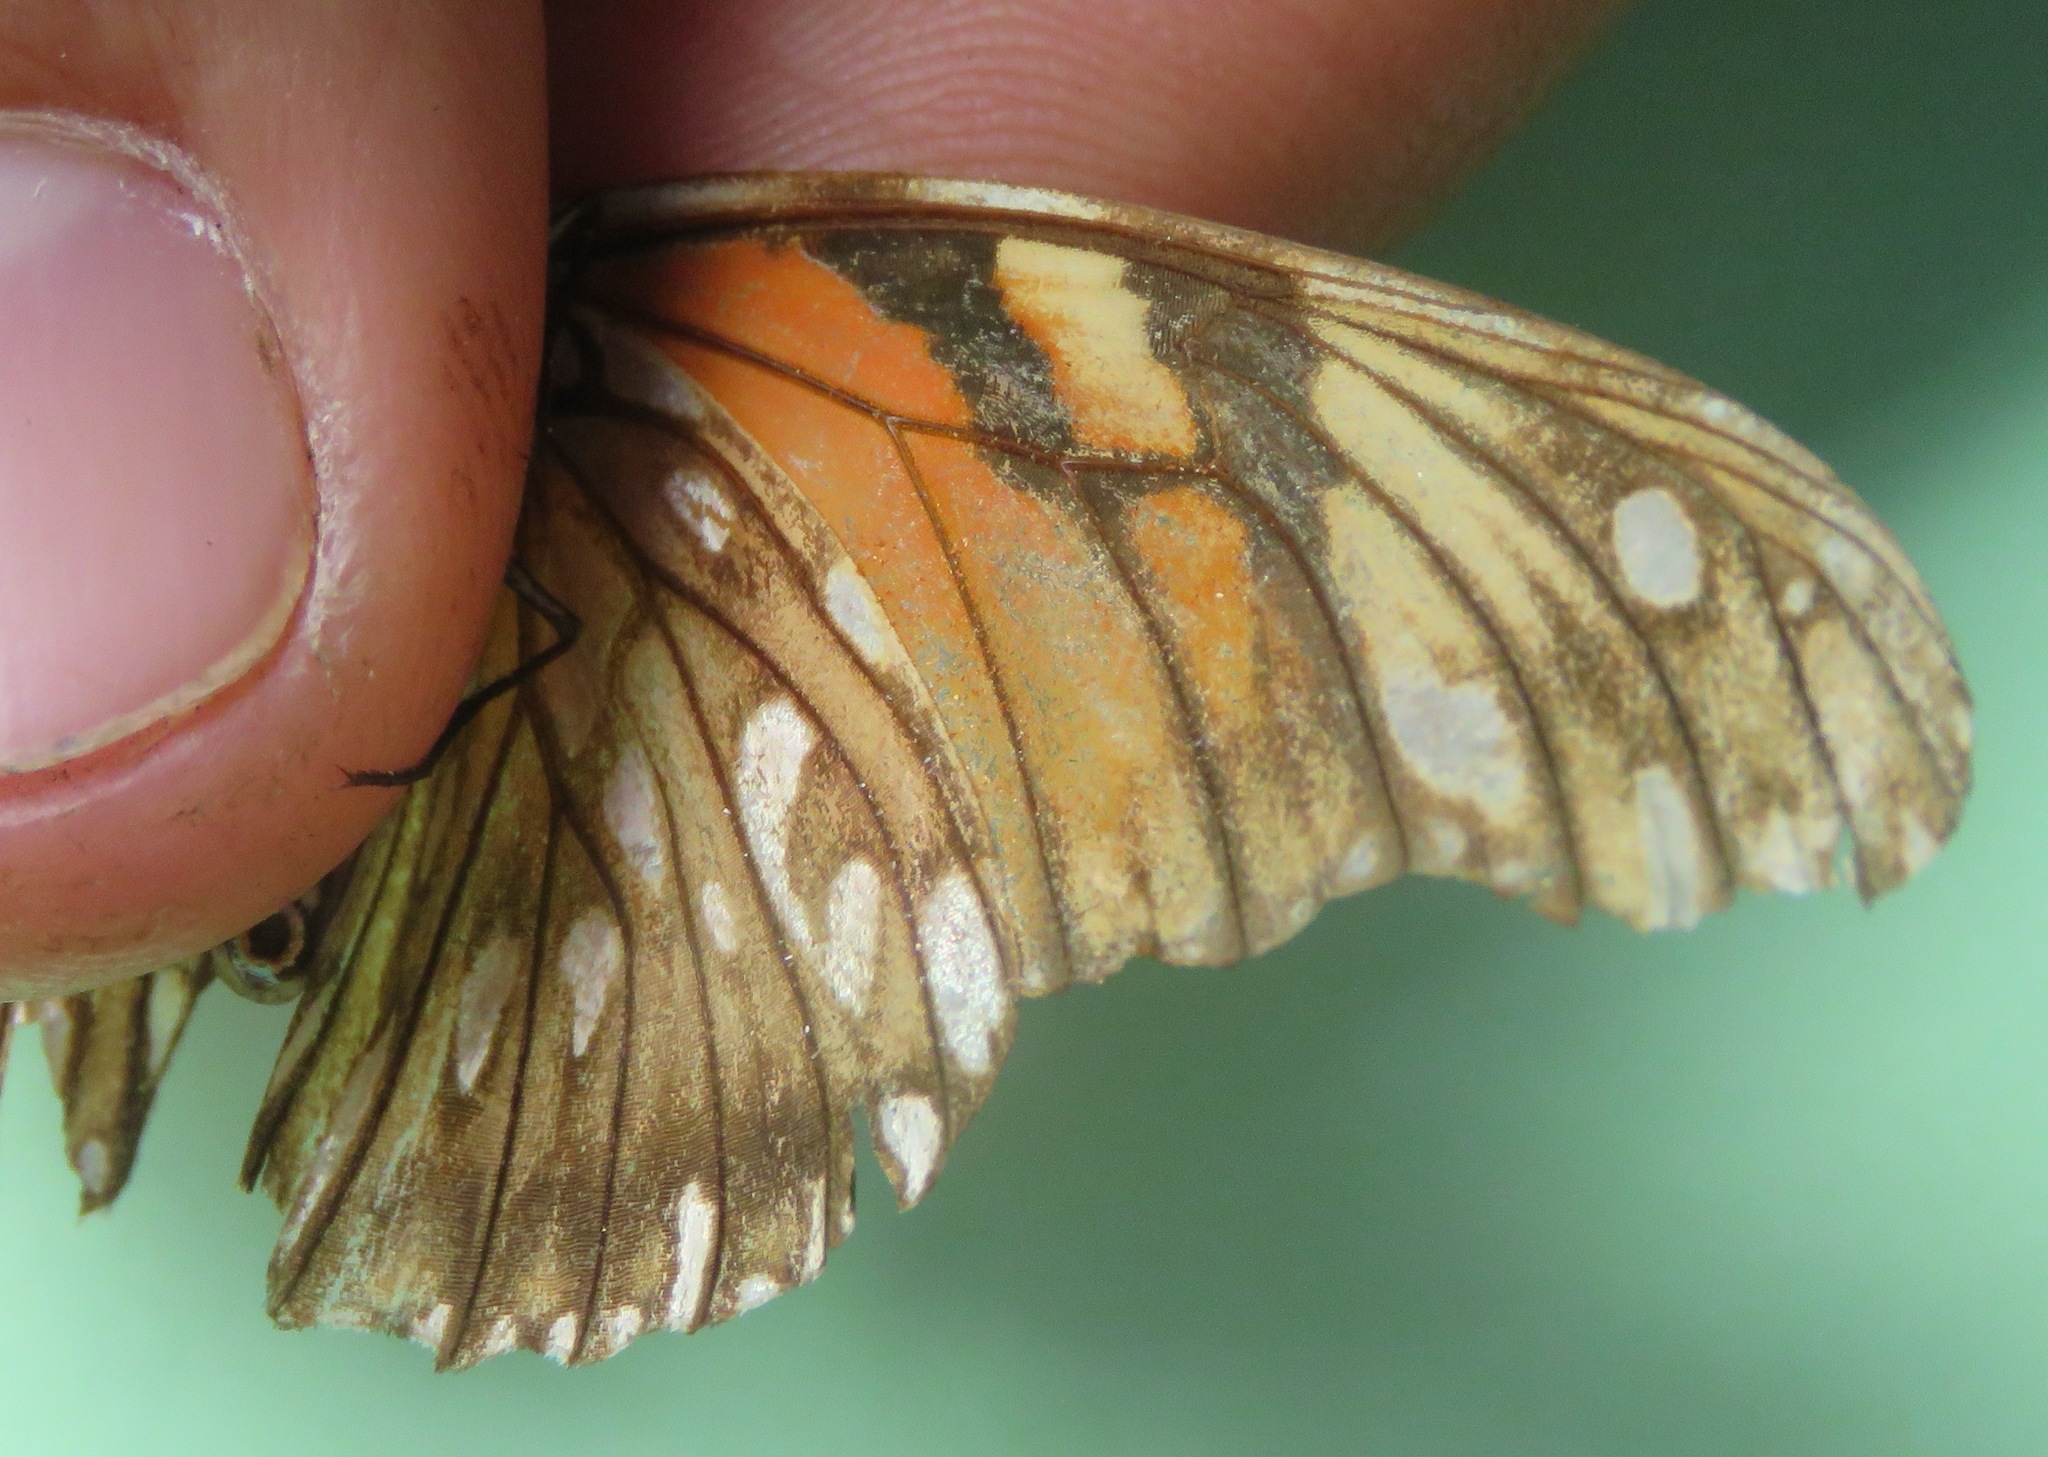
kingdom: Animalia
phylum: Arthropoda
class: Insecta
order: Lepidoptera
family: Nymphalidae
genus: Dione
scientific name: Dione juno
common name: Juno silverspot
